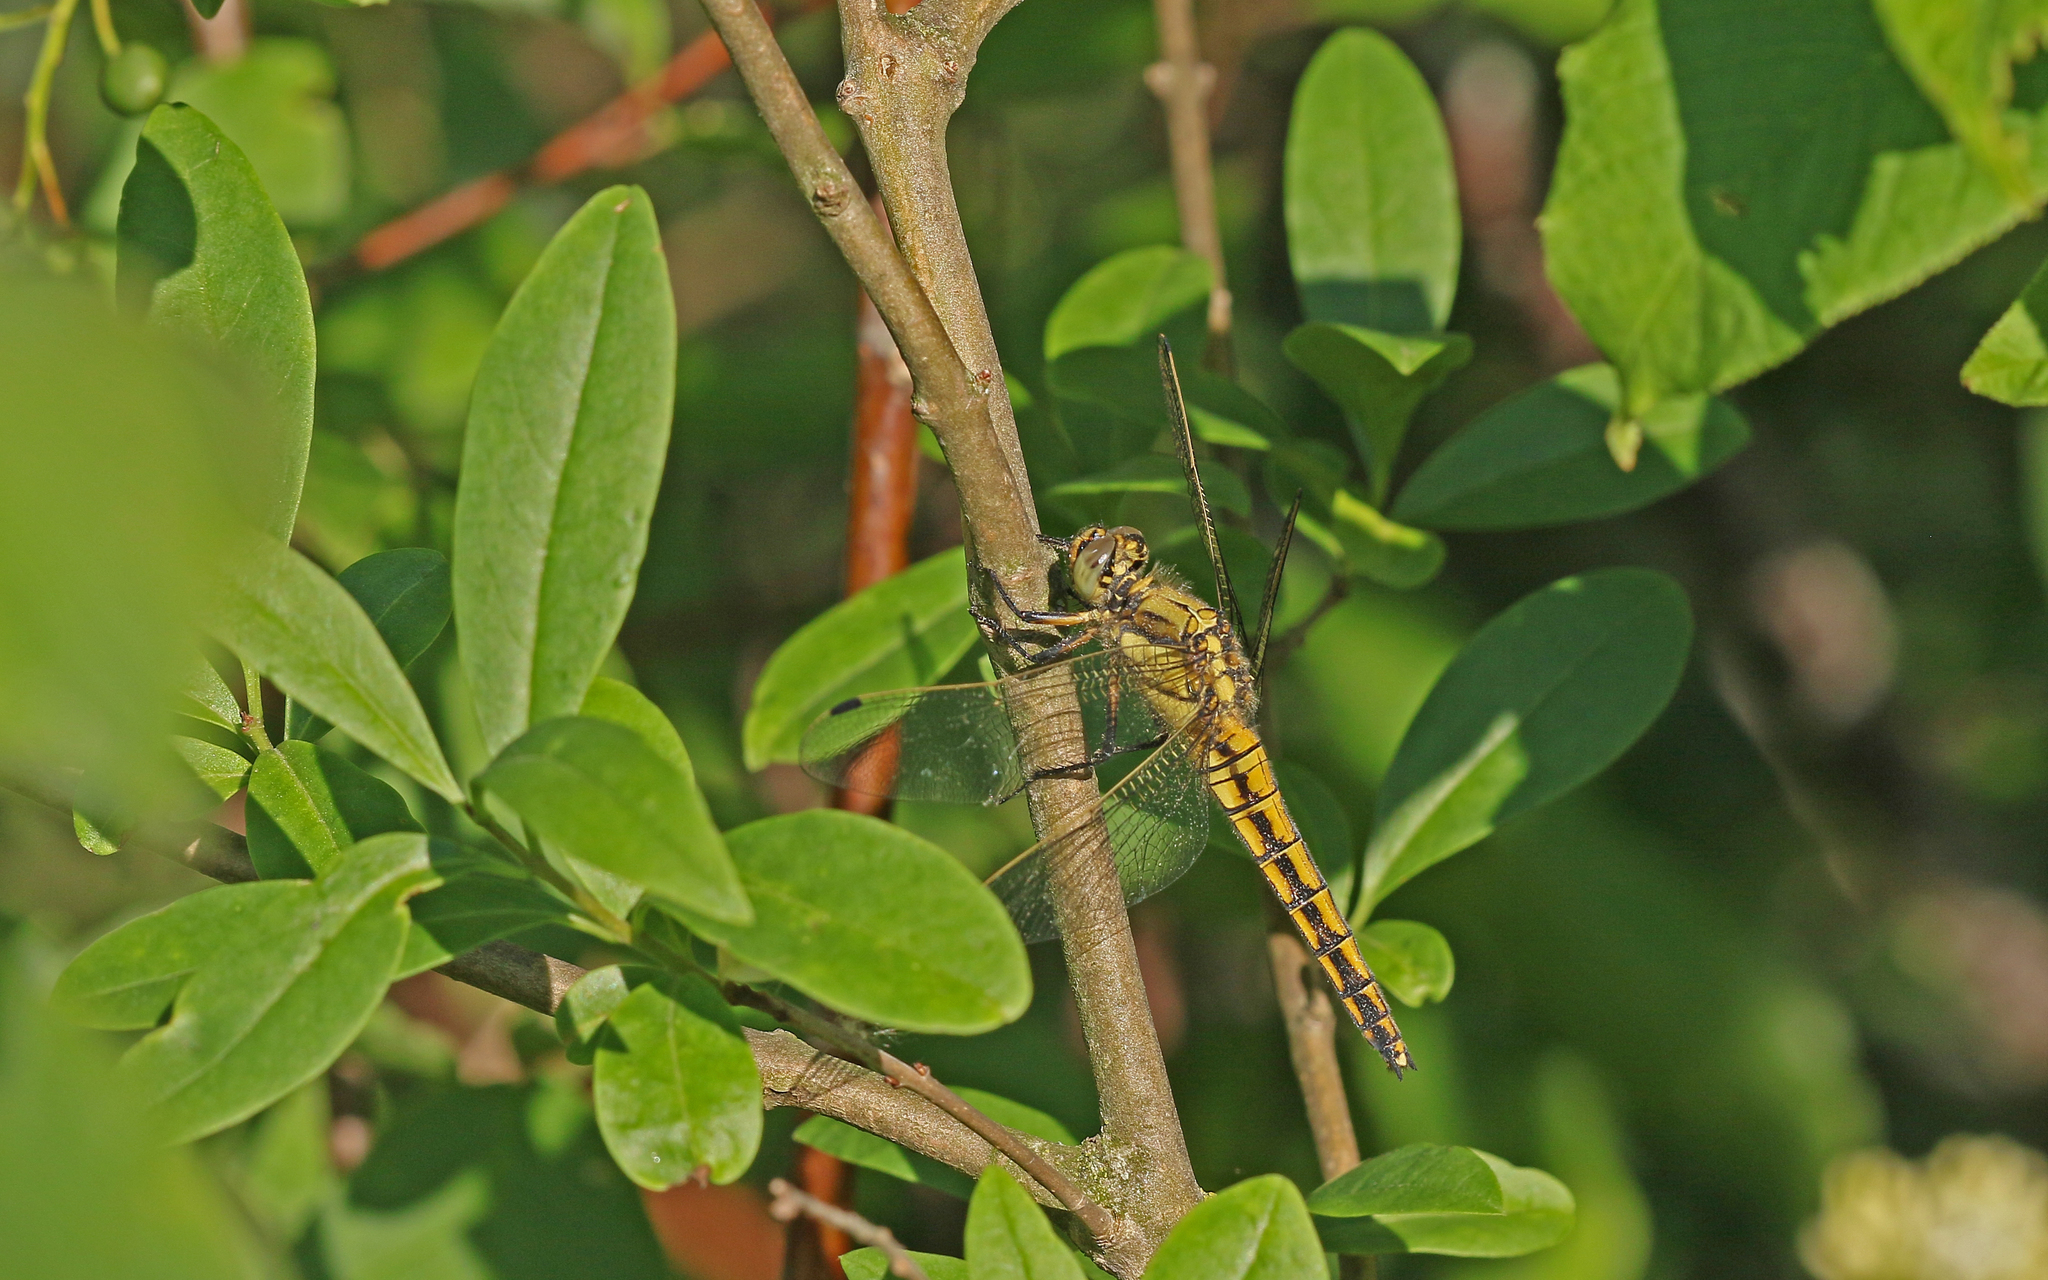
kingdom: Animalia
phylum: Arthropoda
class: Insecta
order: Odonata
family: Libellulidae
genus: Orthetrum
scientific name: Orthetrum cancellatum
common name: Black-tailed skimmer
